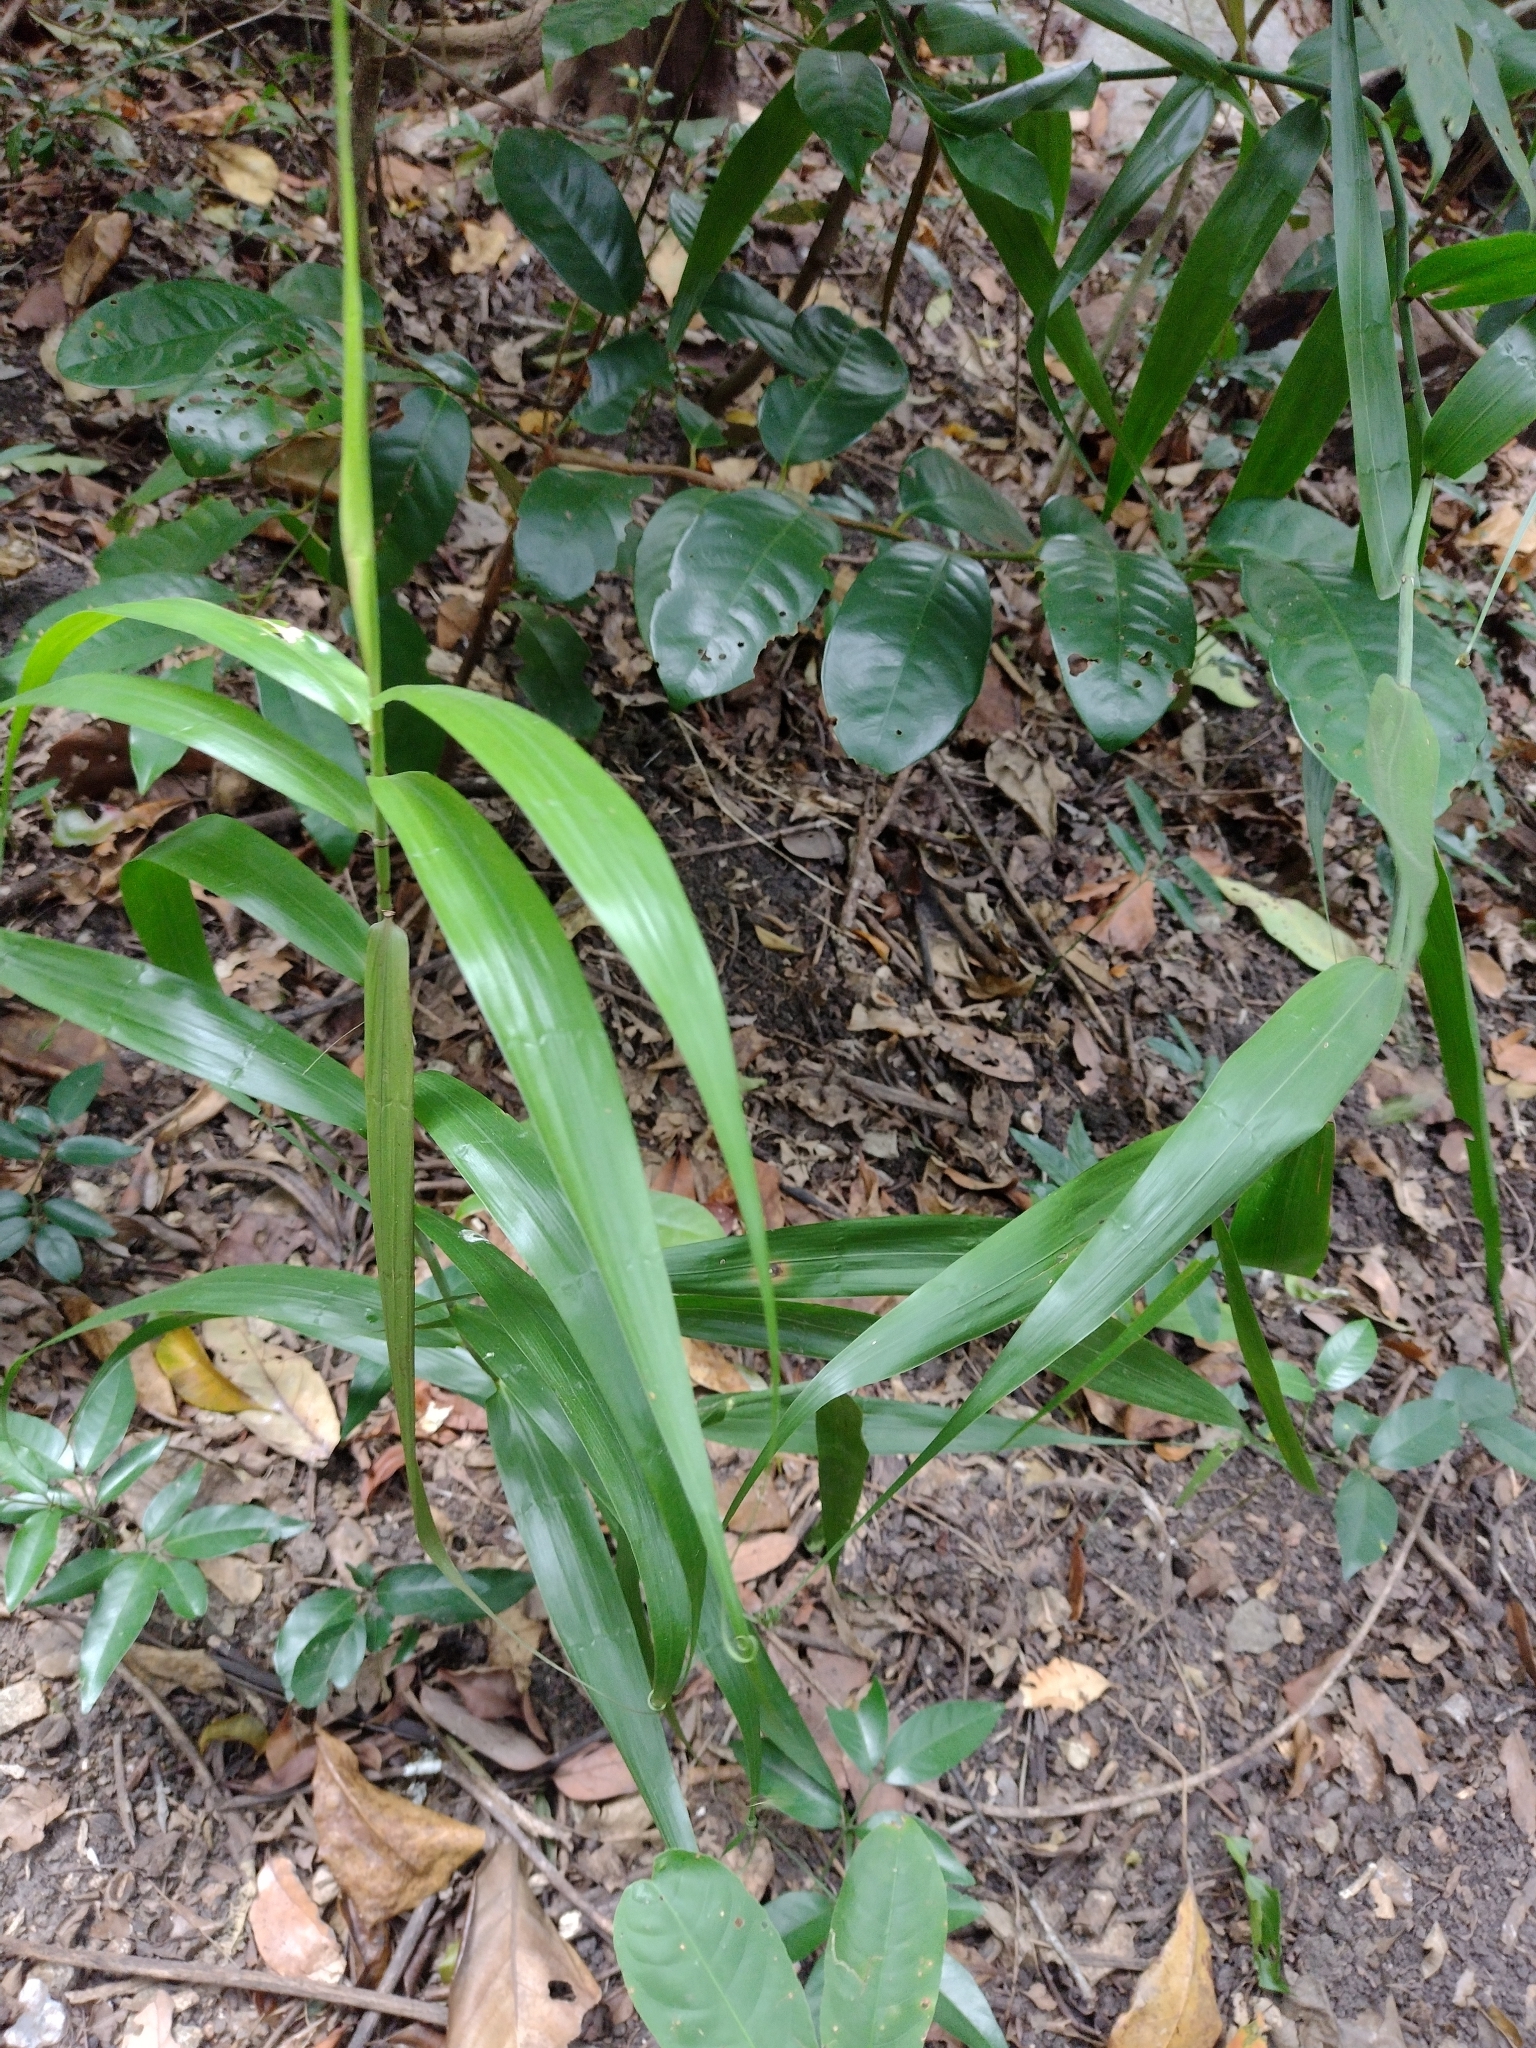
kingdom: Plantae
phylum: Tracheophyta
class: Liliopsida
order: Poales
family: Flagellariaceae
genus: Flagellaria
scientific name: Flagellaria indica
